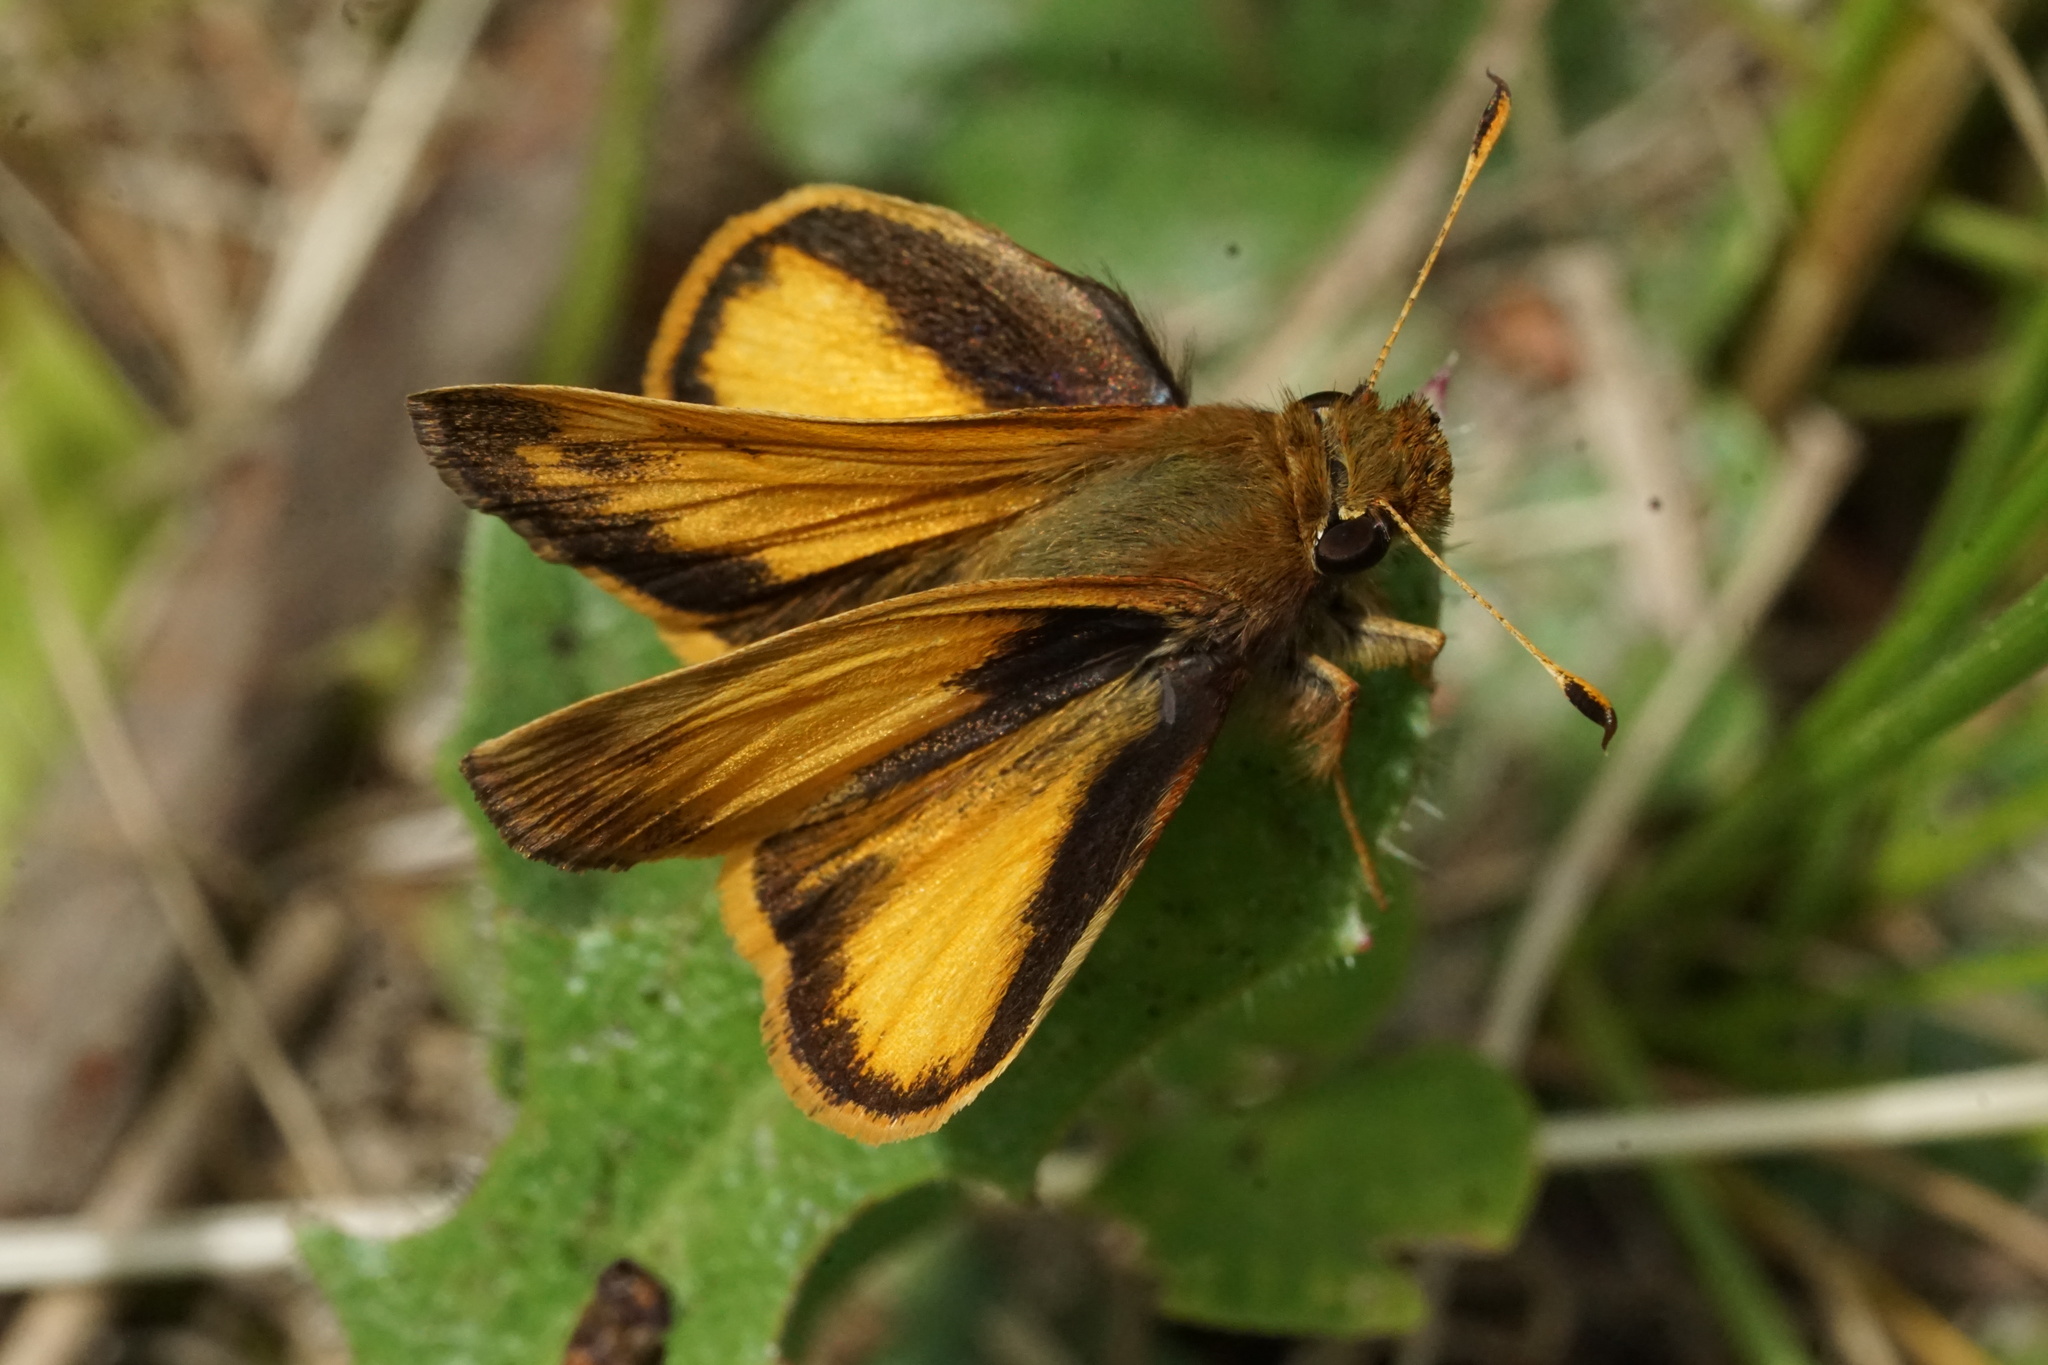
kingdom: Animalia
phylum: Arthropoda
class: Insecta
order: Lepidoptera
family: Hesperiidae
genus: Lon
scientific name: Lon zabulon
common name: Zabulon skipper
